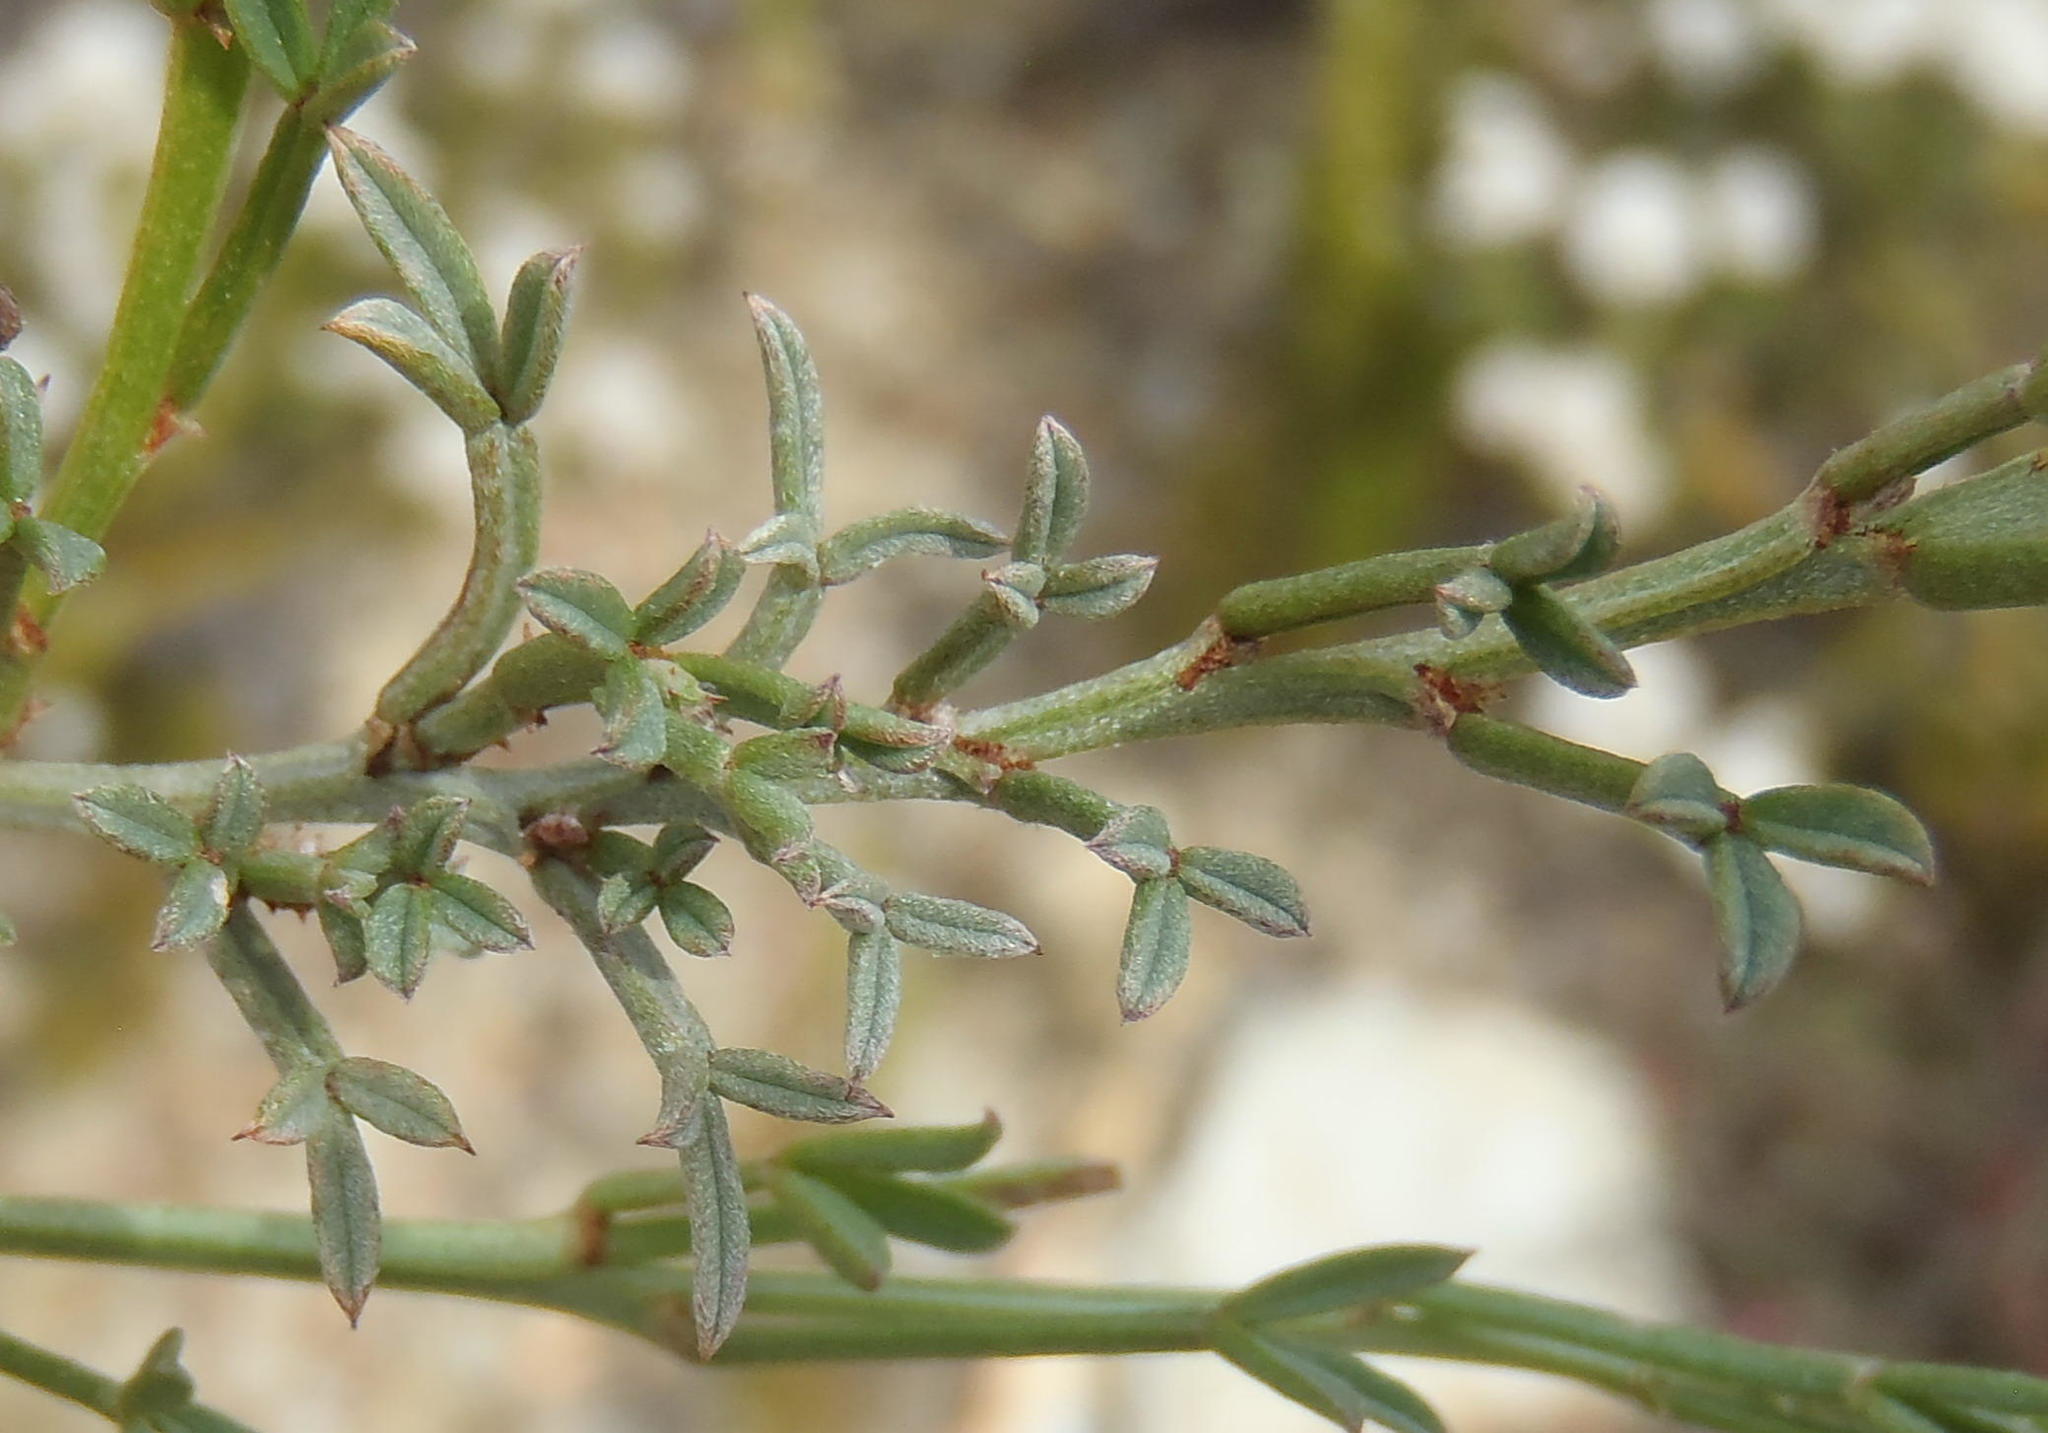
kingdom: Plantae
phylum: Tracheophyta
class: Magnoliopsida
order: Fabales
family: Fabaceae
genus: Indigofera
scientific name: Indigofera meyeriana
